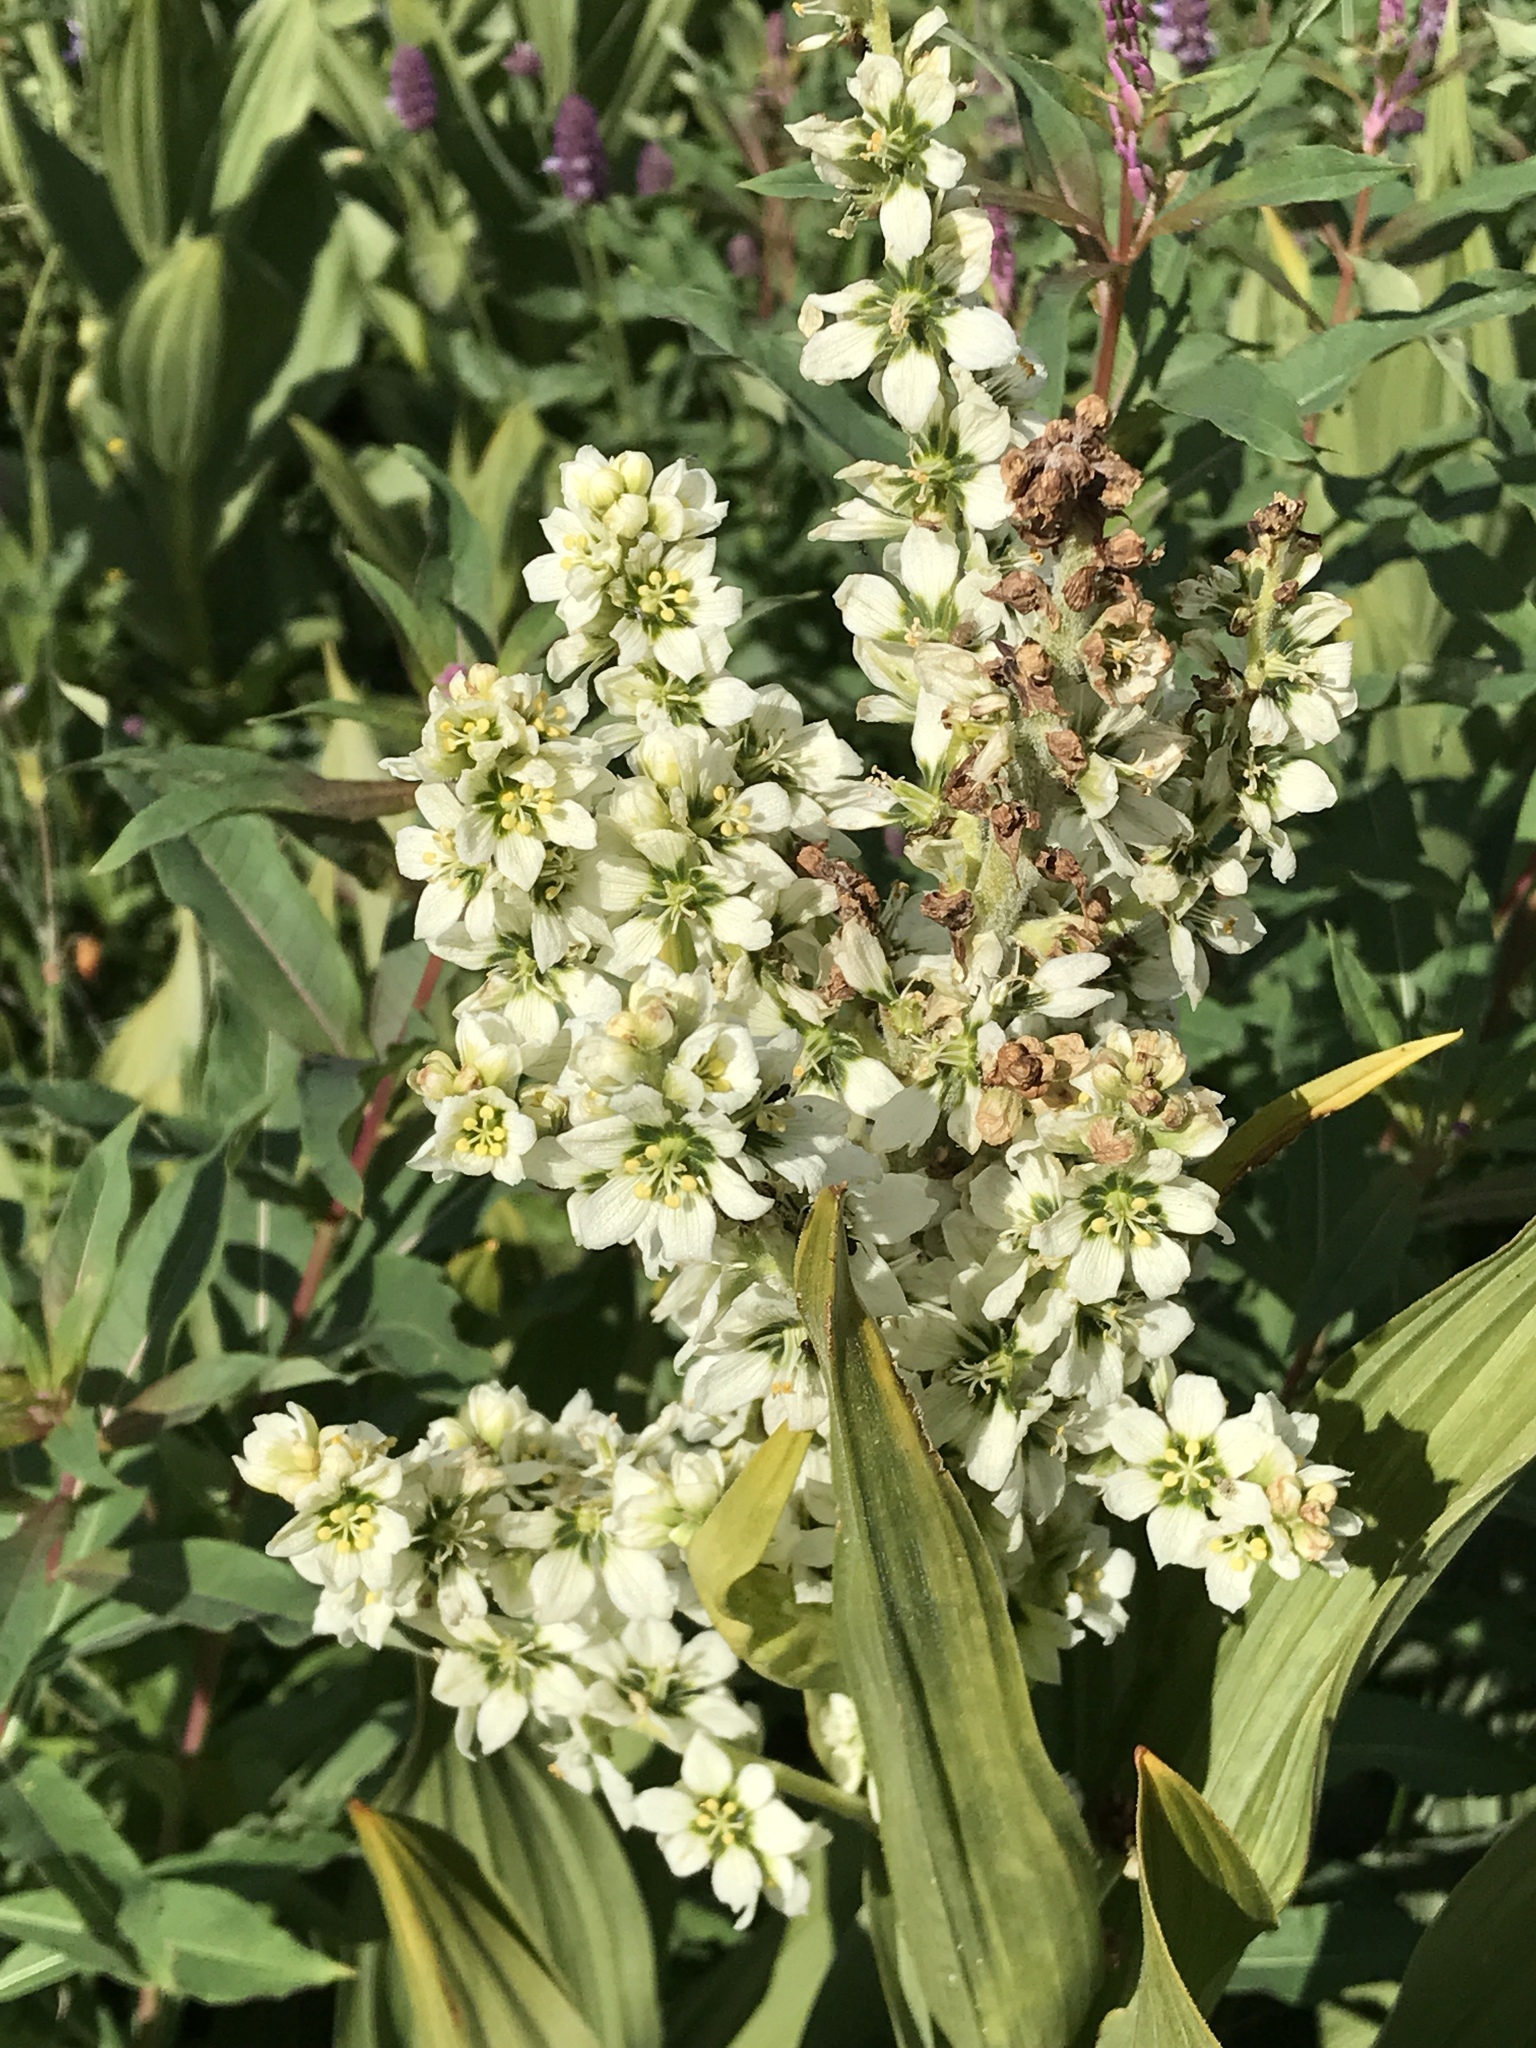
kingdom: Plantae
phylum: Tracheophyta
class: Liliopsida
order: Liliales
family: Melanthiaceae
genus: Veratrum
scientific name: Veratrum californicum
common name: California veratrum
